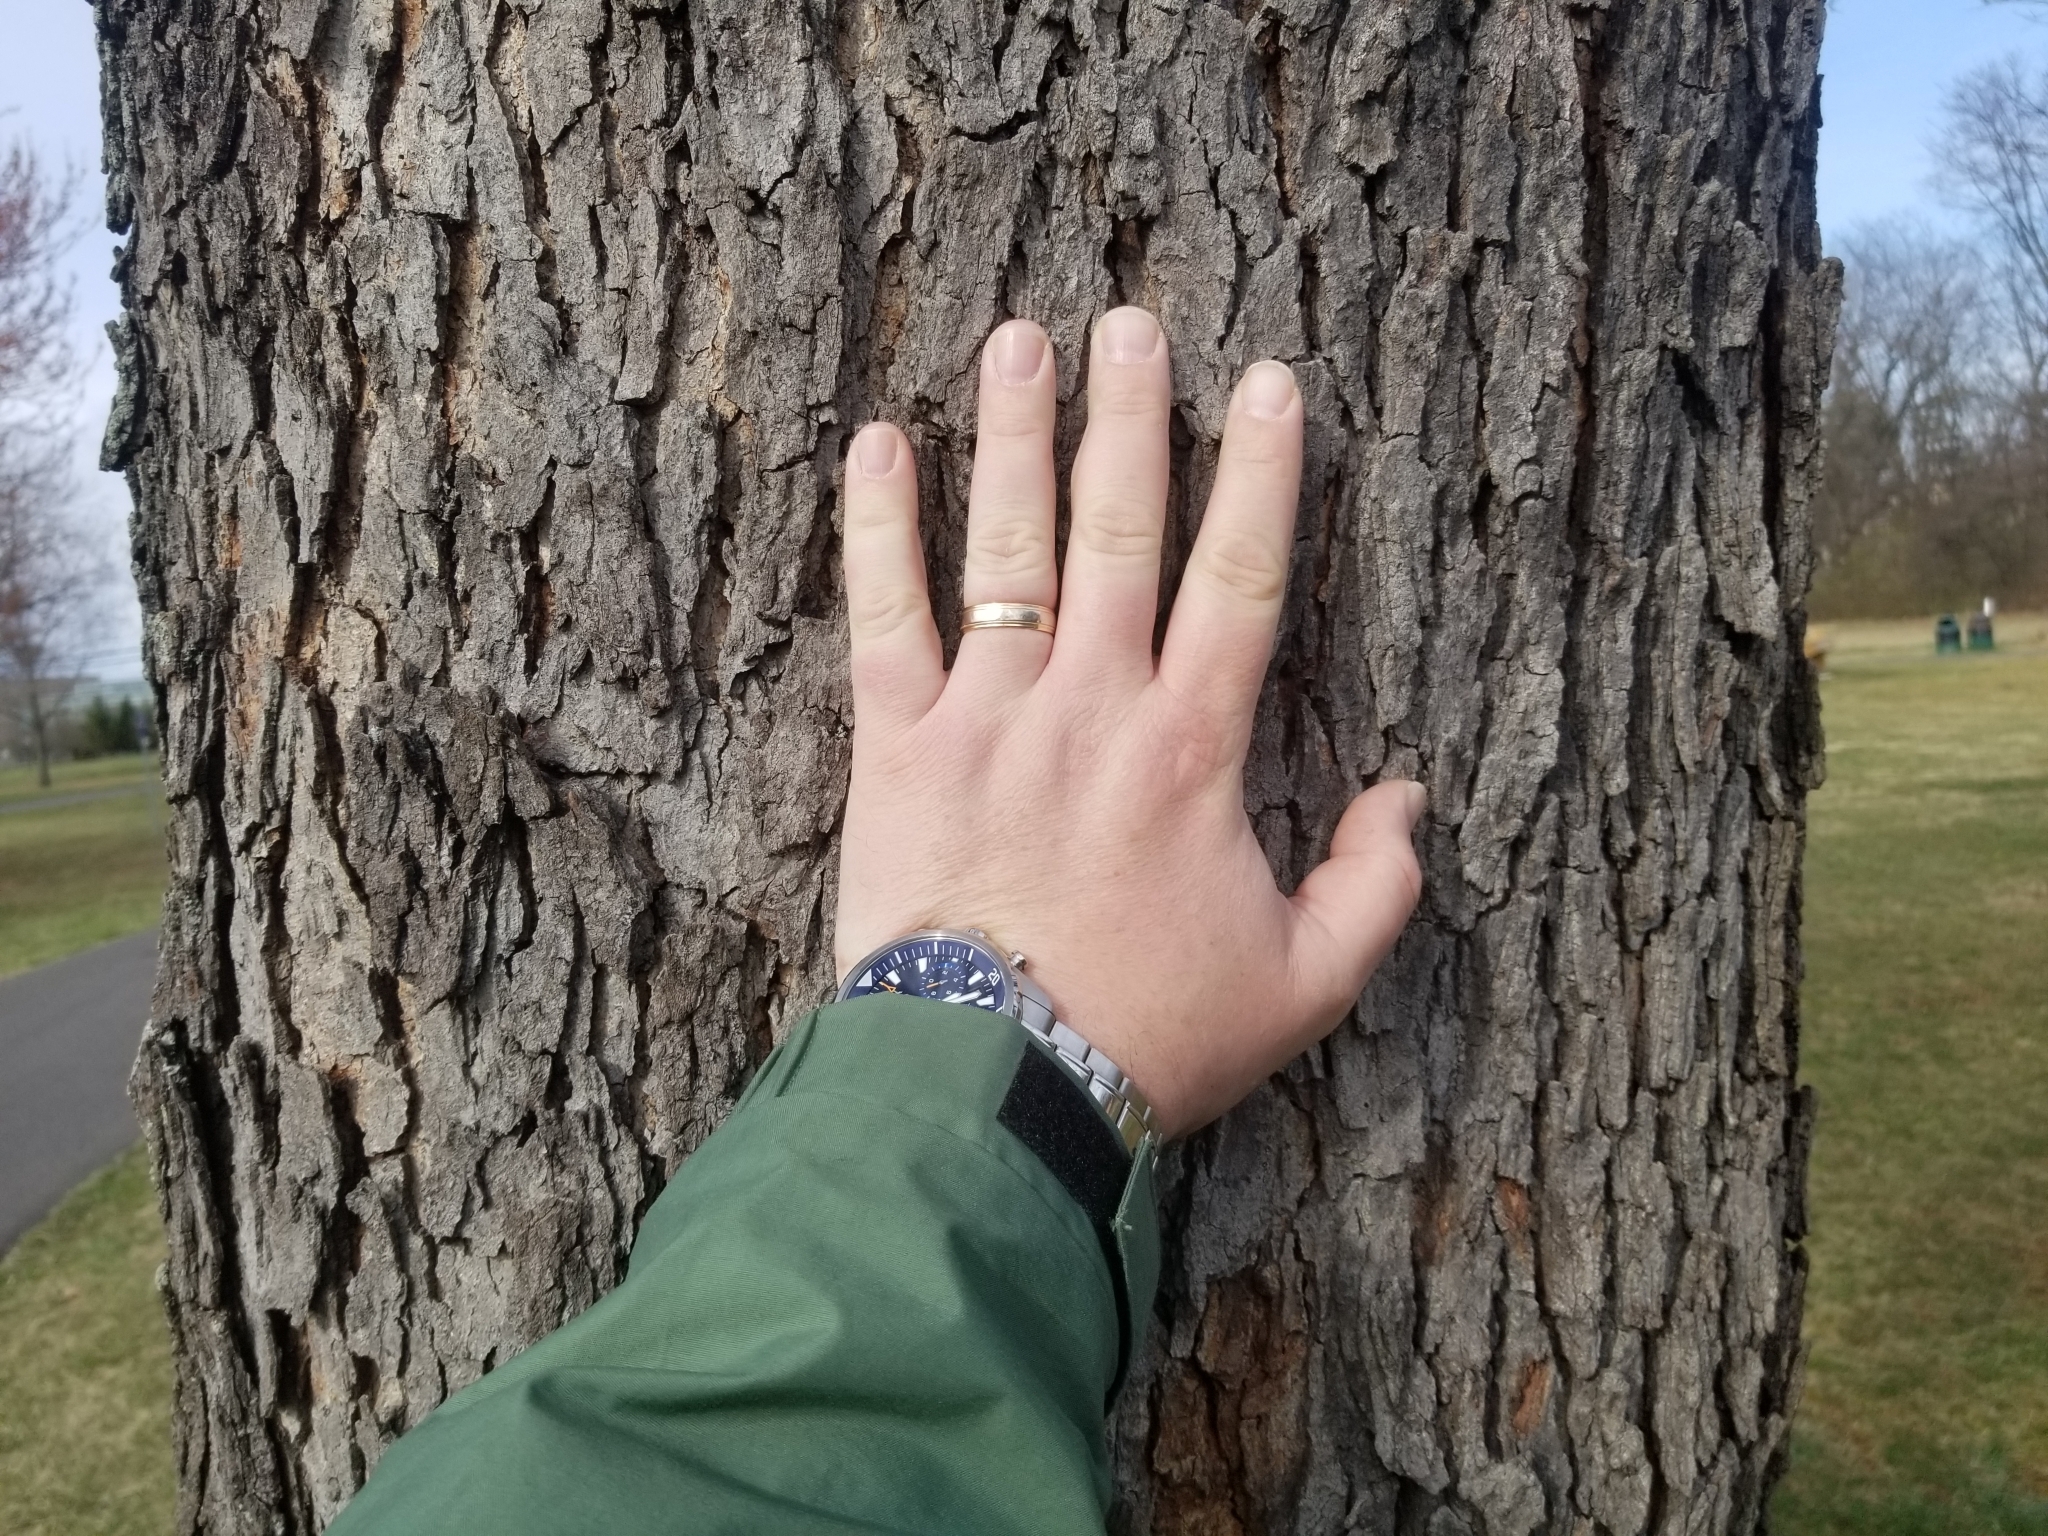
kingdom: Fungi
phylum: Ascomycota
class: Dothideomycetes
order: Venturiales
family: Venturiaceae
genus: Apiosporina
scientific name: Apiosporina morbosa
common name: Black knot
